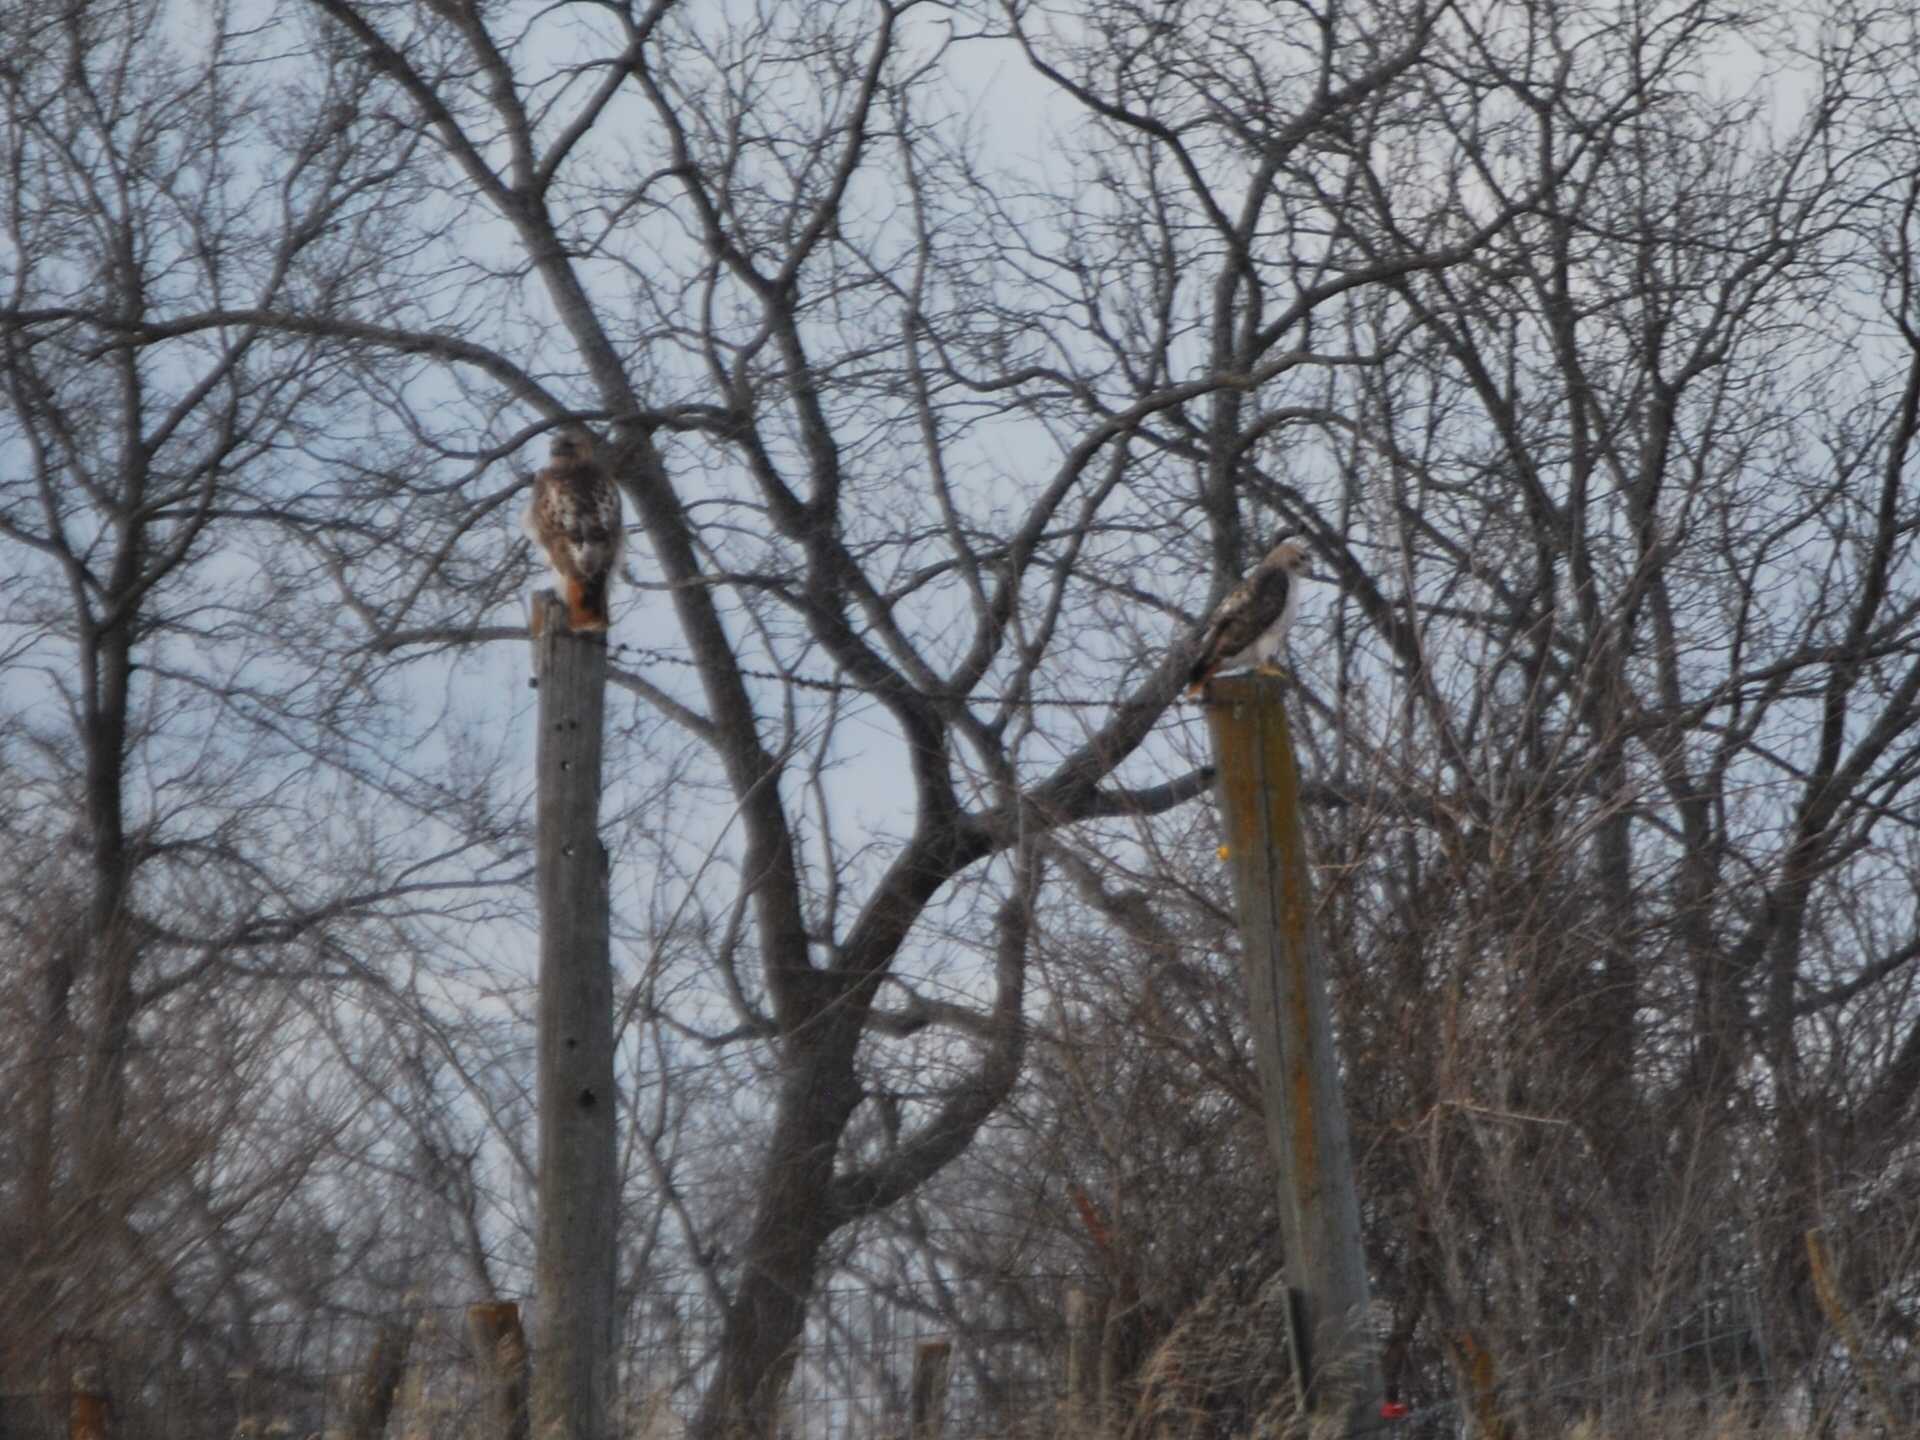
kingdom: Animalia
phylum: Chordata
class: Aves
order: Accipitriformes
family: Accipitridae
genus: Buteo
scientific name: Buteo jamaicensis
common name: Red-tailed hawk
